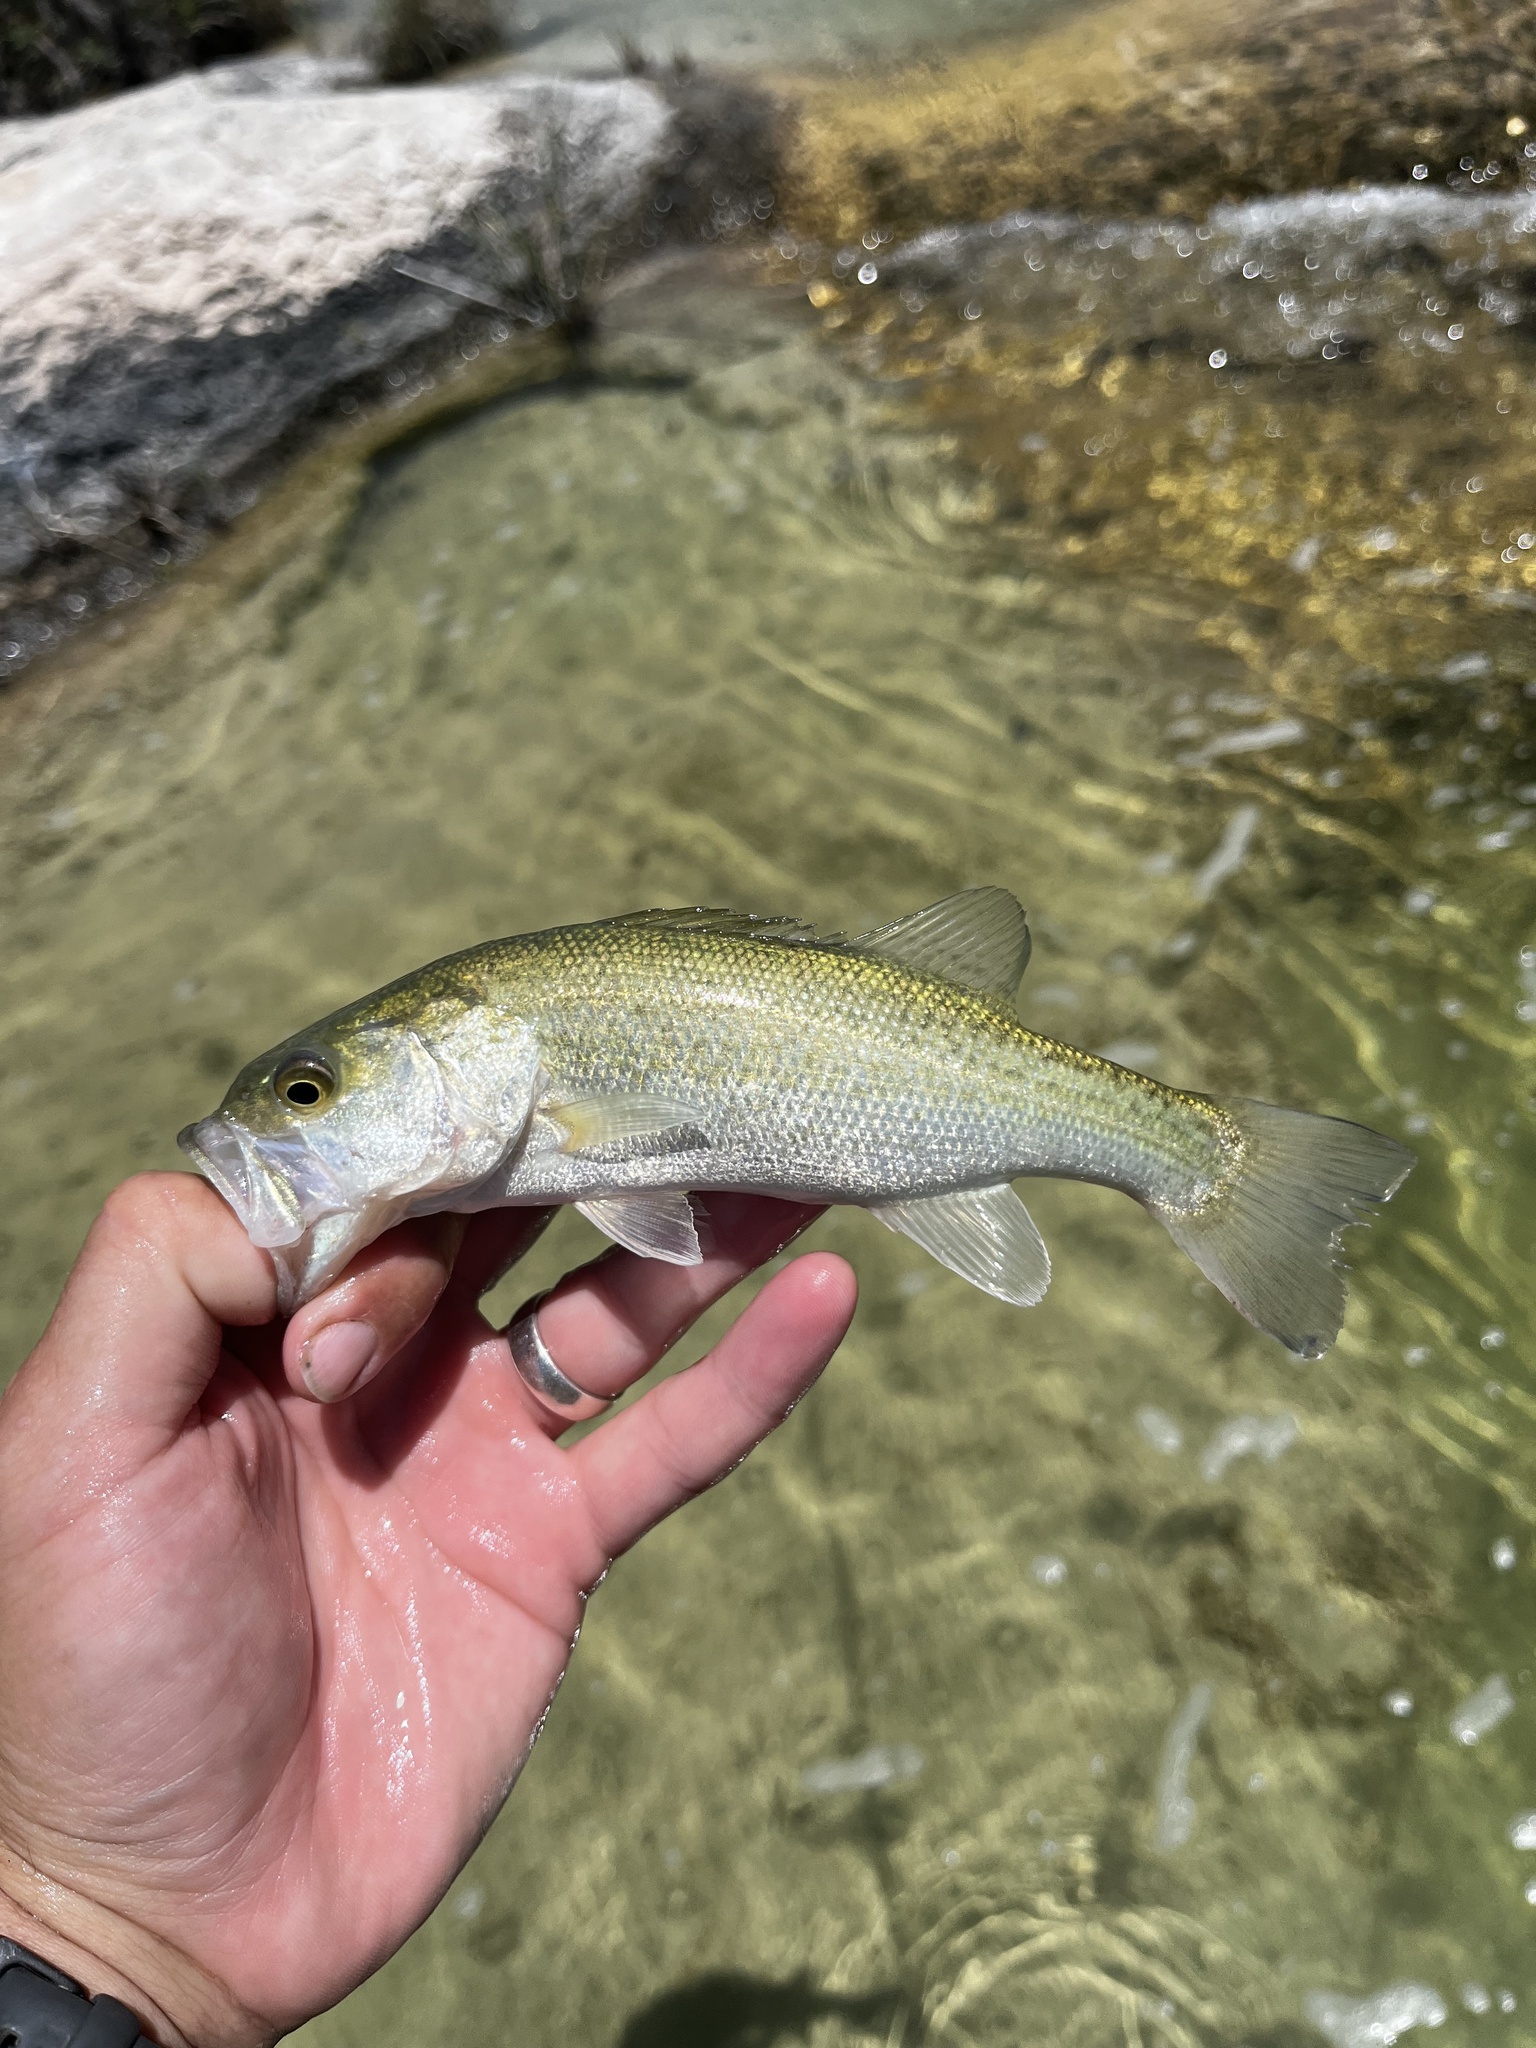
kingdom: Animalia
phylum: Chordata
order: Perciformes
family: Centrarchidae
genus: Micropterus
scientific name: Micropterus
